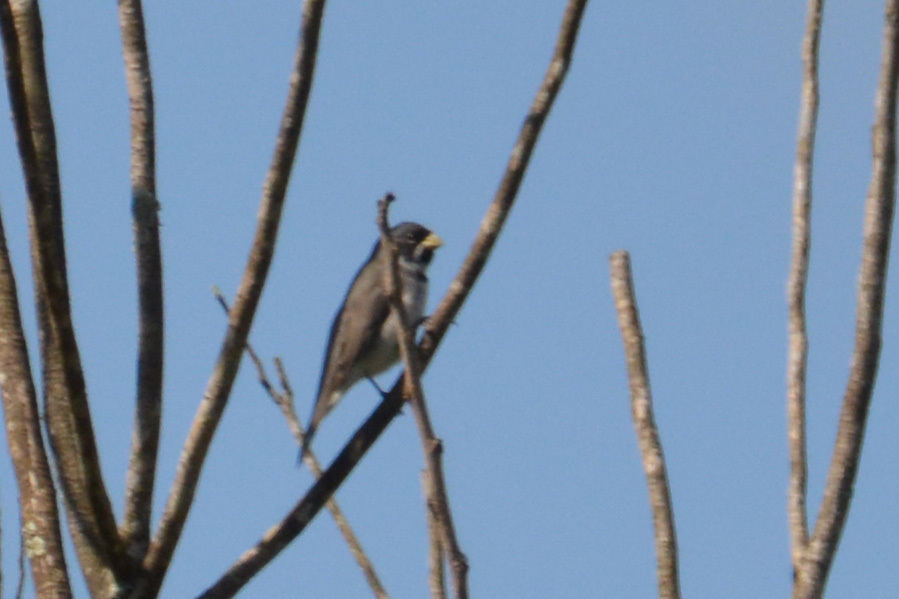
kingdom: Animalia
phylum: Chordata
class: Aves
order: Passeriformes
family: Thraupidae
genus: Sporophila
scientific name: Sporophila caerulescens
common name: Double-collared seedeater
